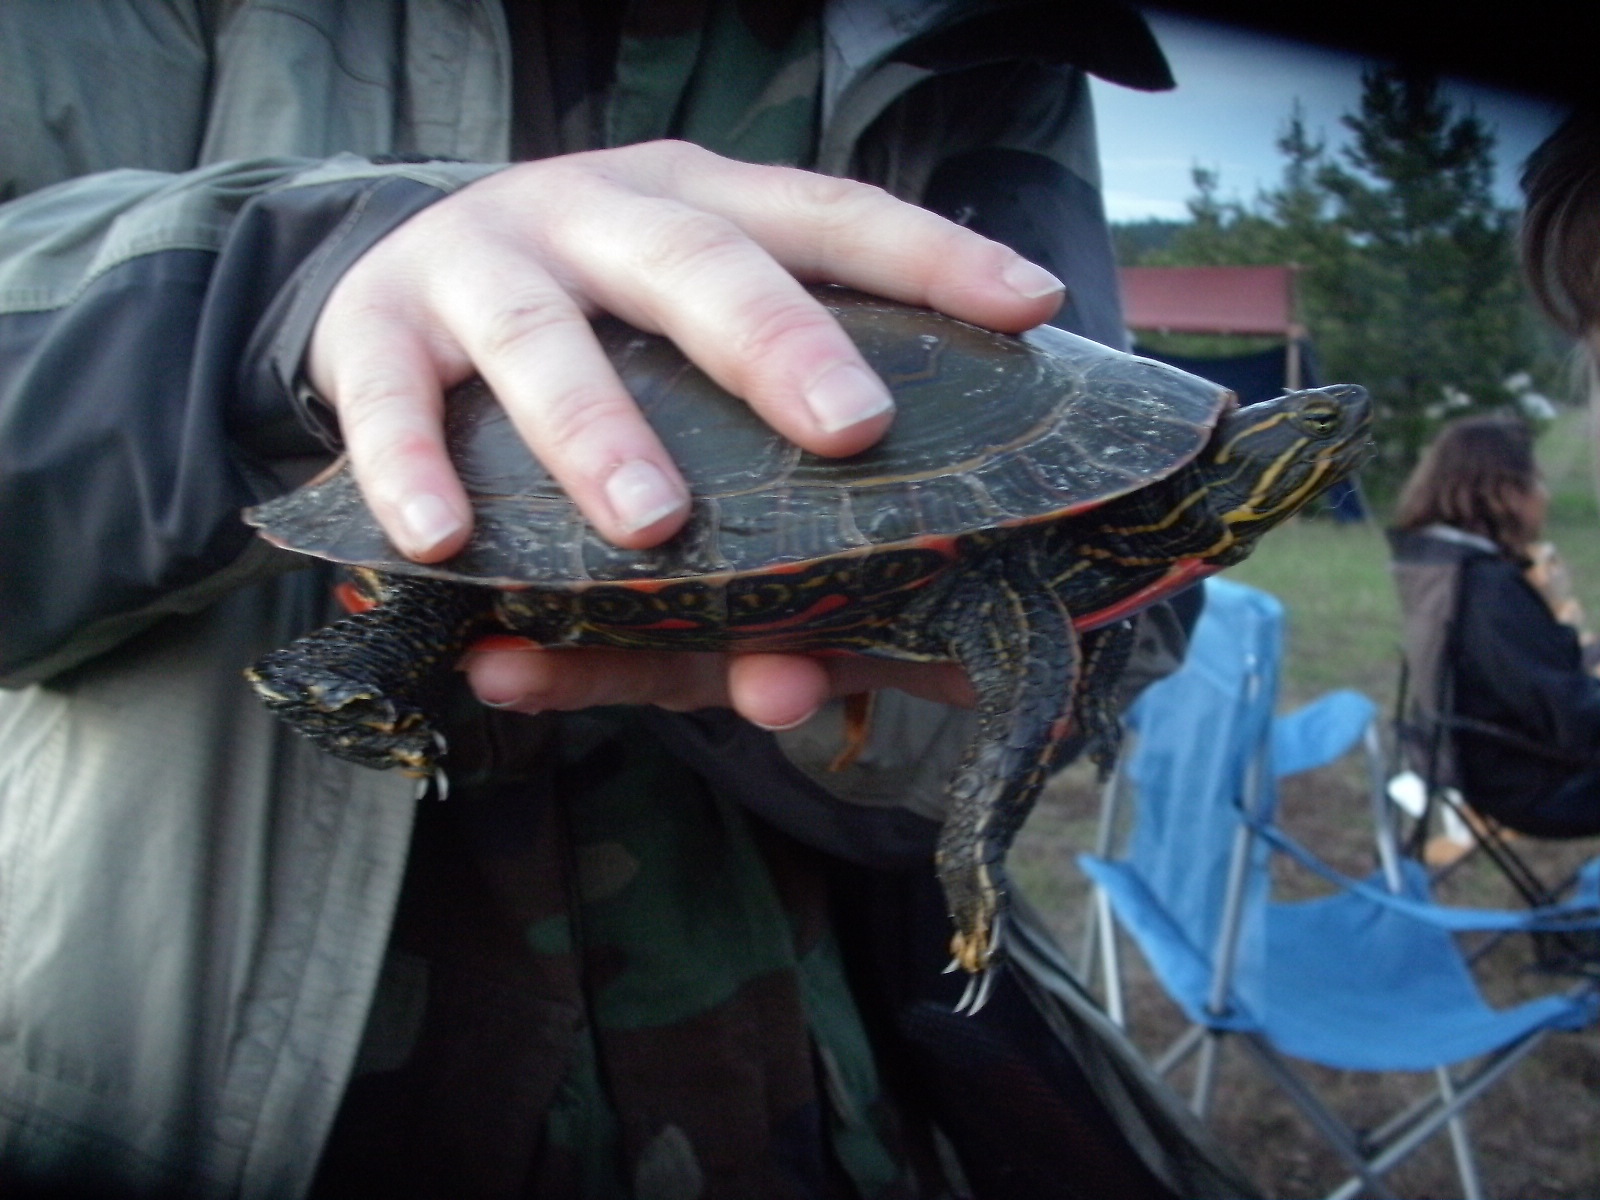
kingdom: Animalia
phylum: Chordata
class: Testudines
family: Emydidae
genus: Chrysemys
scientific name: Chrysemys picta
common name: Painted turtle
